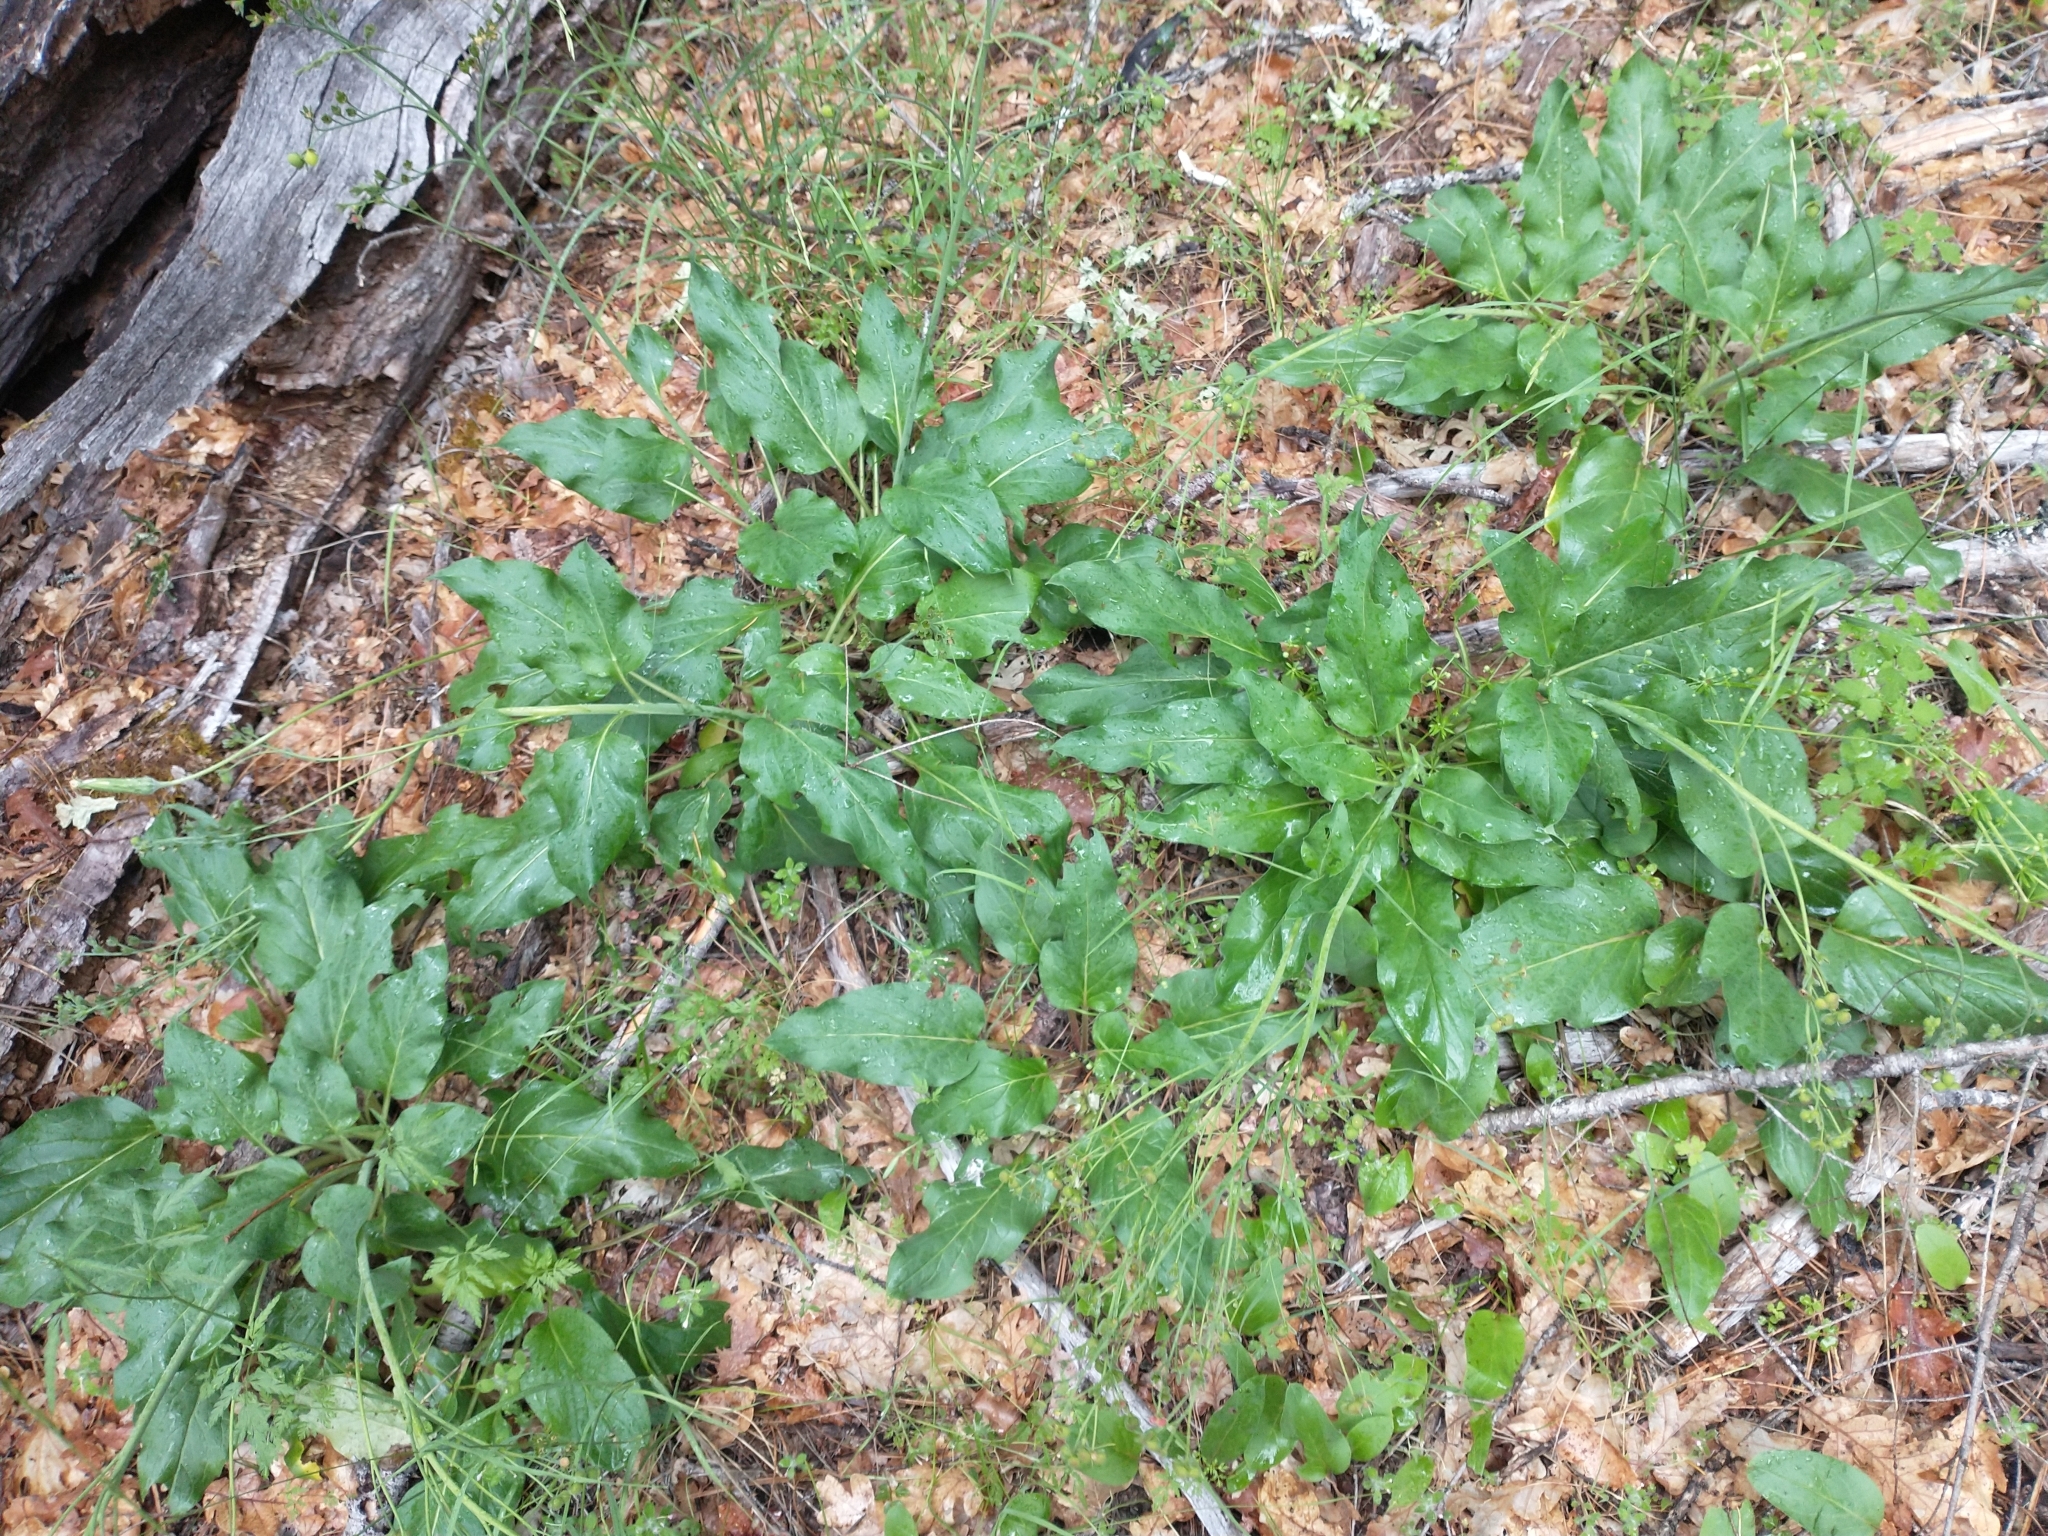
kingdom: Plantae
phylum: Tracheophyta
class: Magnoliopsida
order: Boraginales
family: Boraginaceae
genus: Adelinia
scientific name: Adelinia grande
